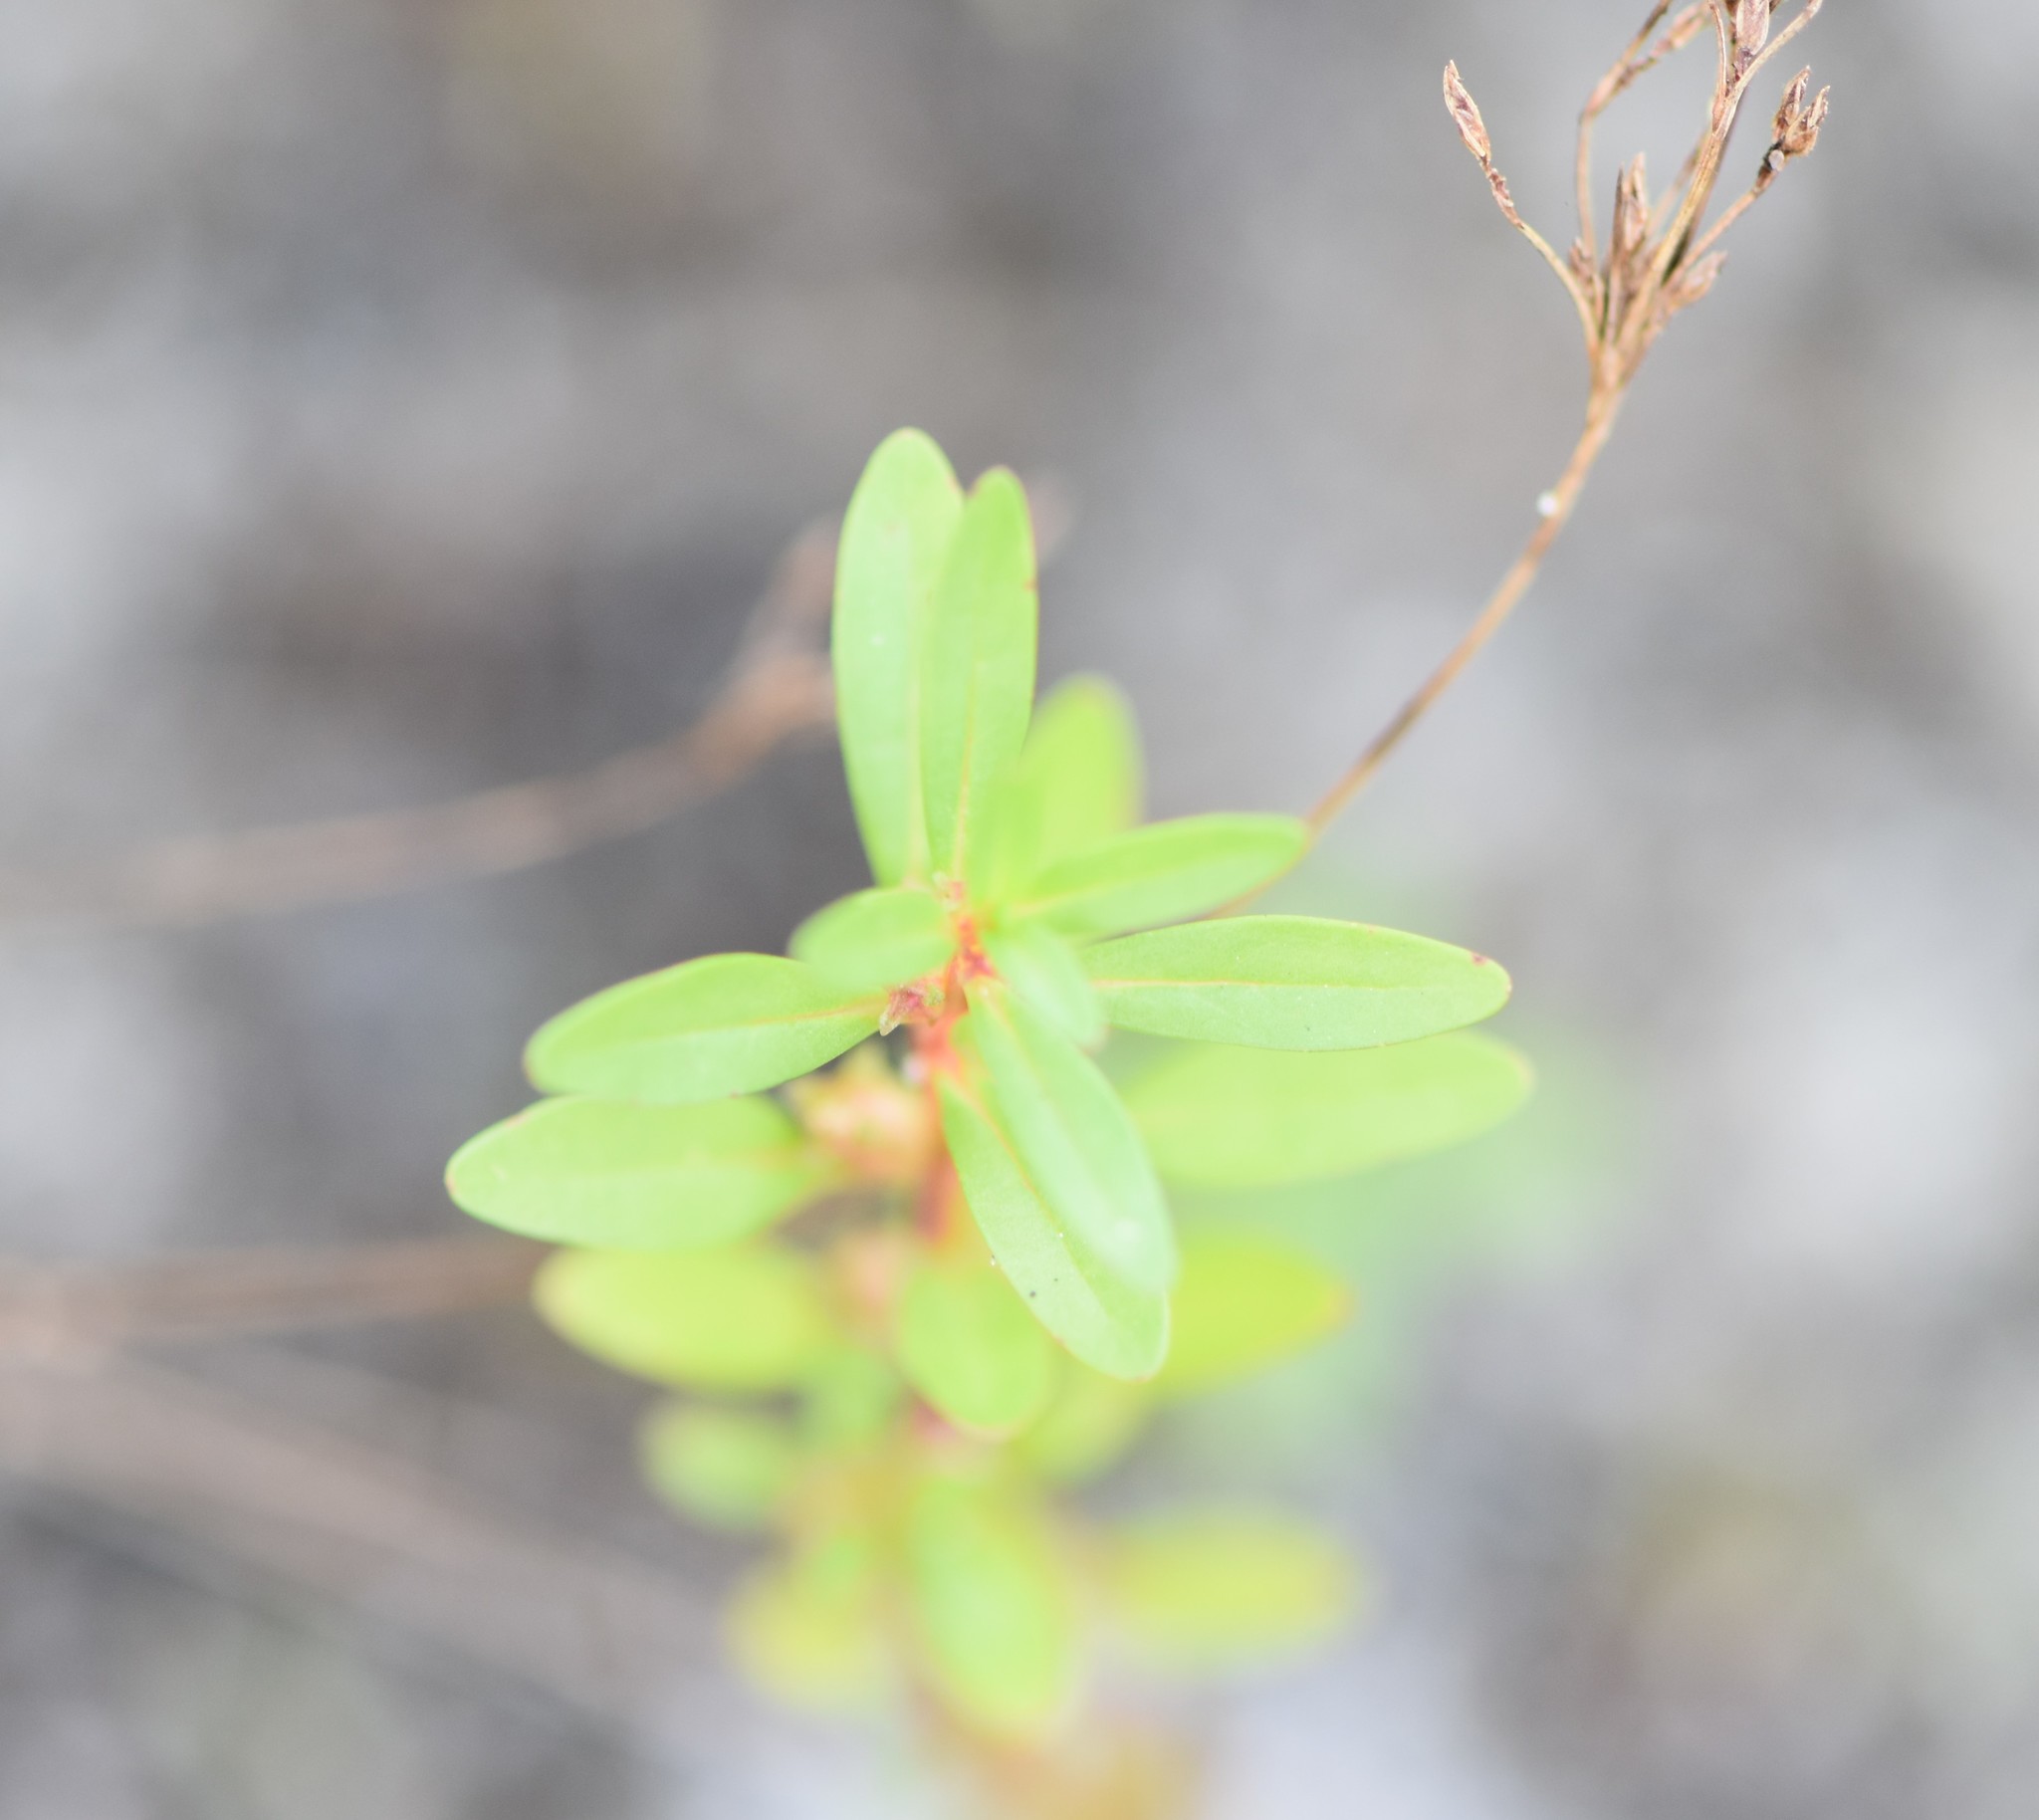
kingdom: Plantae
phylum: Tracheophyta
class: Magnoliopsida
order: Myrtales
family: Lythraceae
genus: Rotala
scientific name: Rotala ramosior
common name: Lowland rotala
